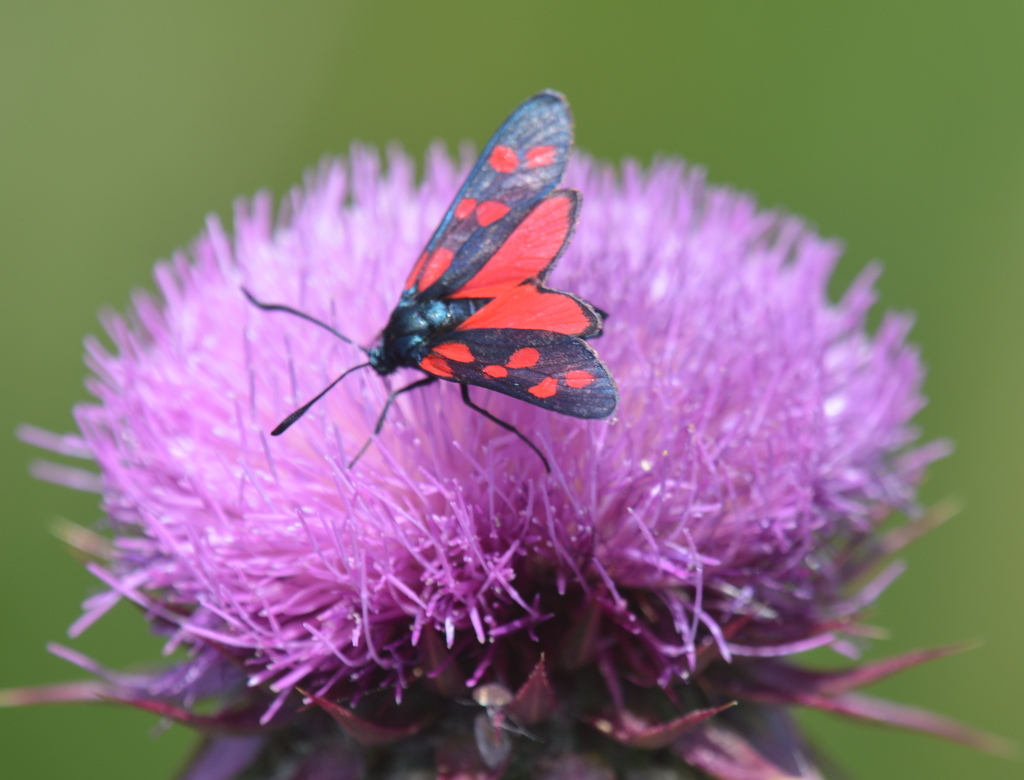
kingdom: Animalia
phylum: Arthropoda
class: Insecta
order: Lepidoptera
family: Zygaenidae
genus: Zygaena
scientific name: Zygaena filipendulae
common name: Six-spot burnet
